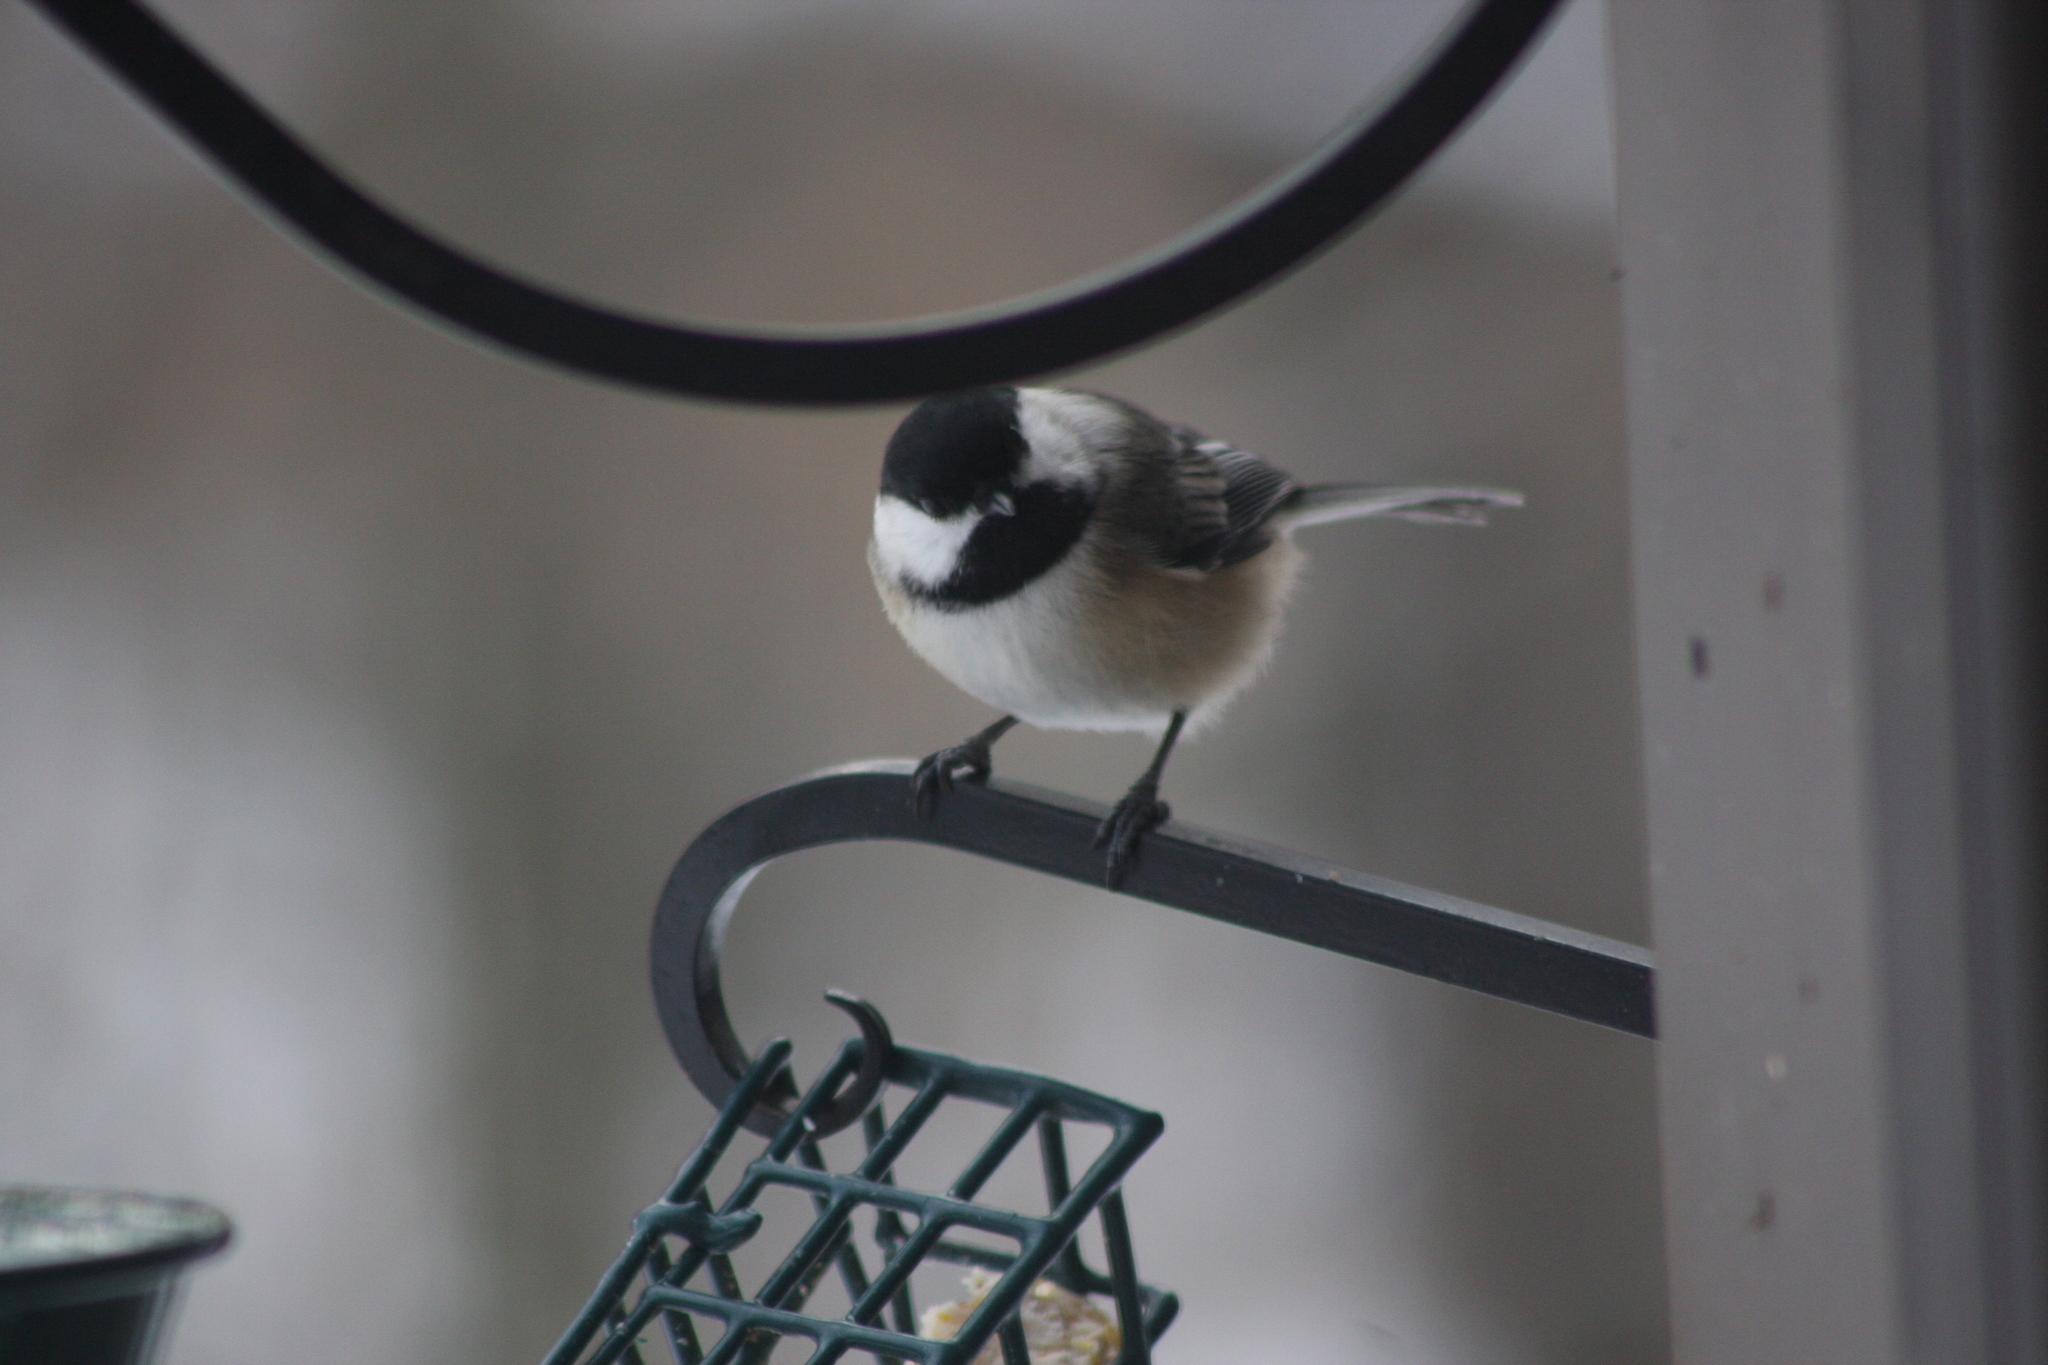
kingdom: Animalia
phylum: Chordata
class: Aves
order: Passeriformes
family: Paridae
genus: Poecile
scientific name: Poecile atricapillus
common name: Black-capped chickadee
